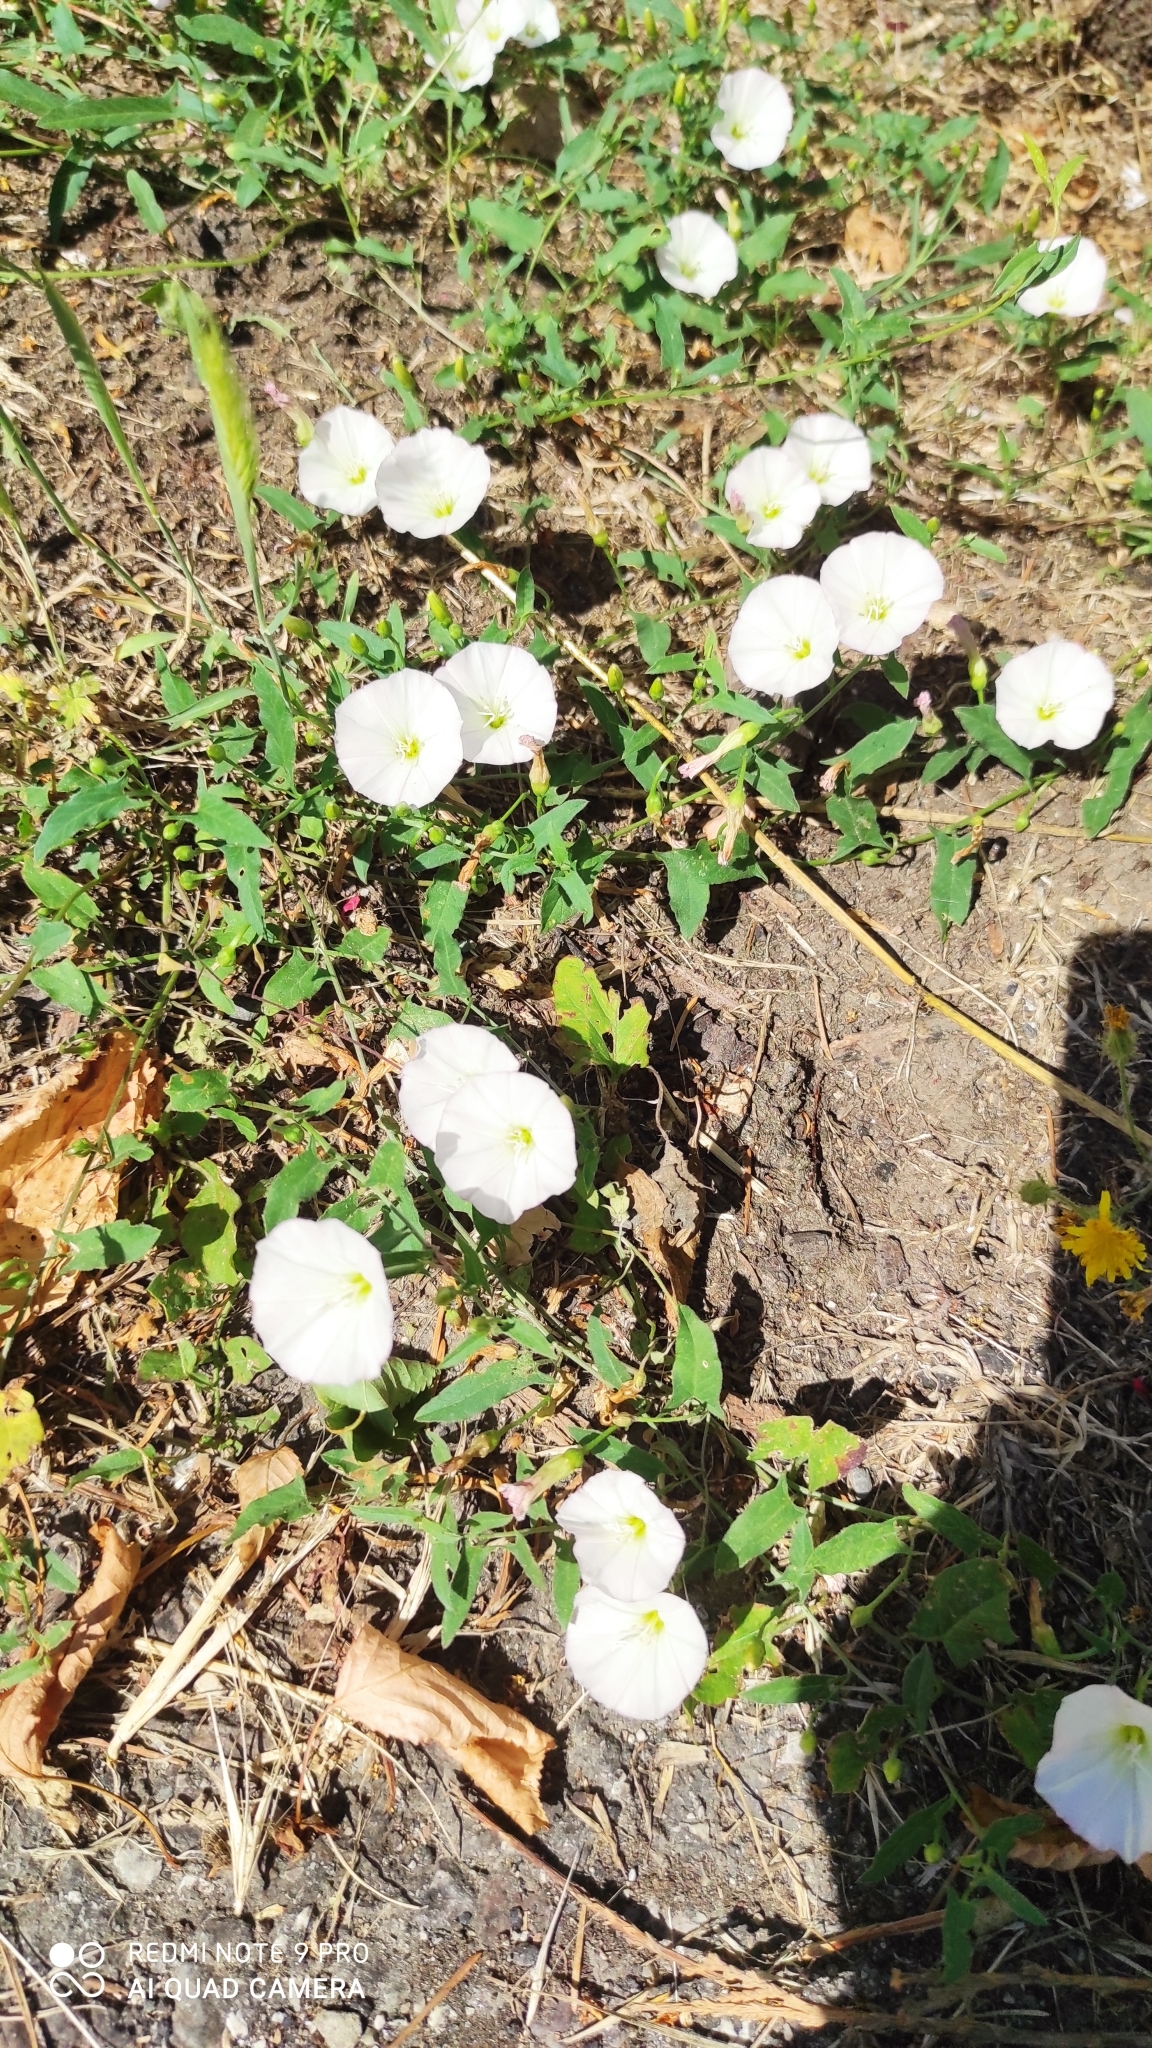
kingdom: Plantae
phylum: Tracheophyta
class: Magnoliopsida
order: Solanales
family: Convolvulaceae
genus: Convolvulus
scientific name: Convolvulus arvensis
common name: Field bindweed
